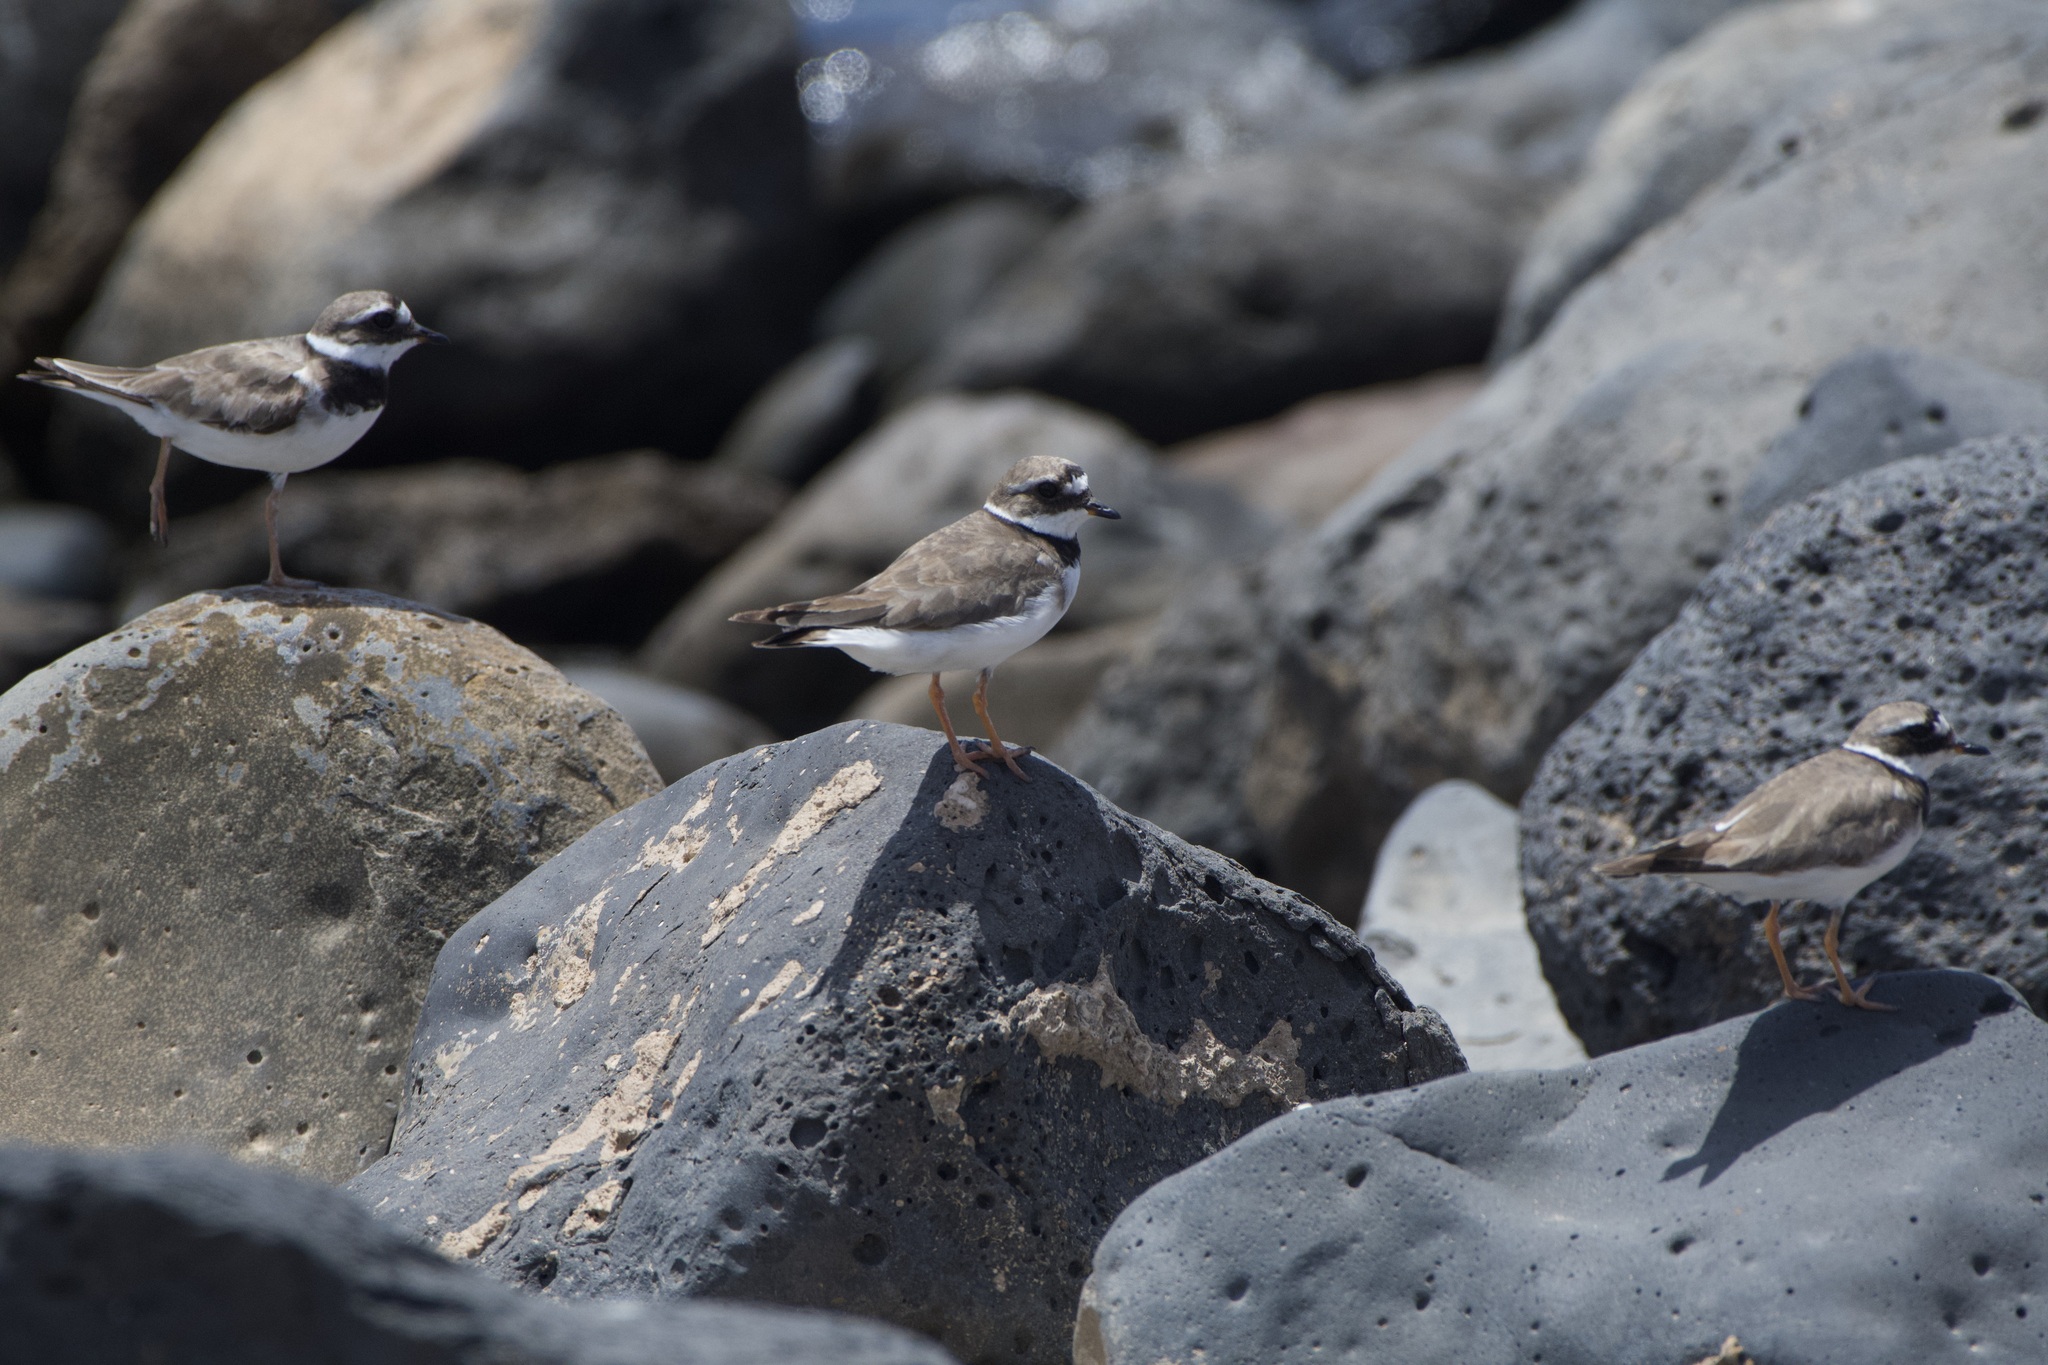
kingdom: Animalia
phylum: Chordata
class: Aves
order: Charadriiformes
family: Charadriidae
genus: Charadrius
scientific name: Charadrius hiaticula
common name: Common ringed plover
